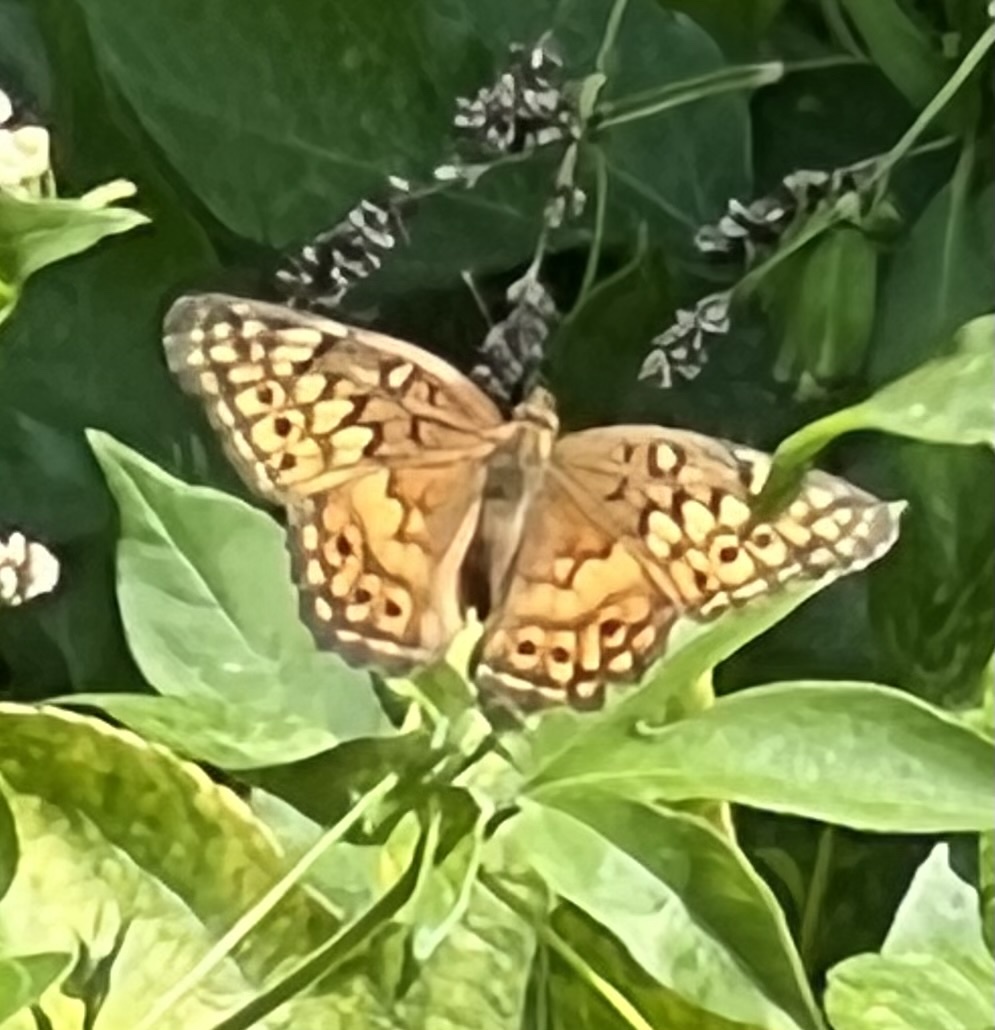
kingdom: Animalia
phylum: Arthropoda
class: Insecta
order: Lepidoptera
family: Nymphalidae
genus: Euptoieta
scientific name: Euptoieta claudia
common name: Variegated fritillary
